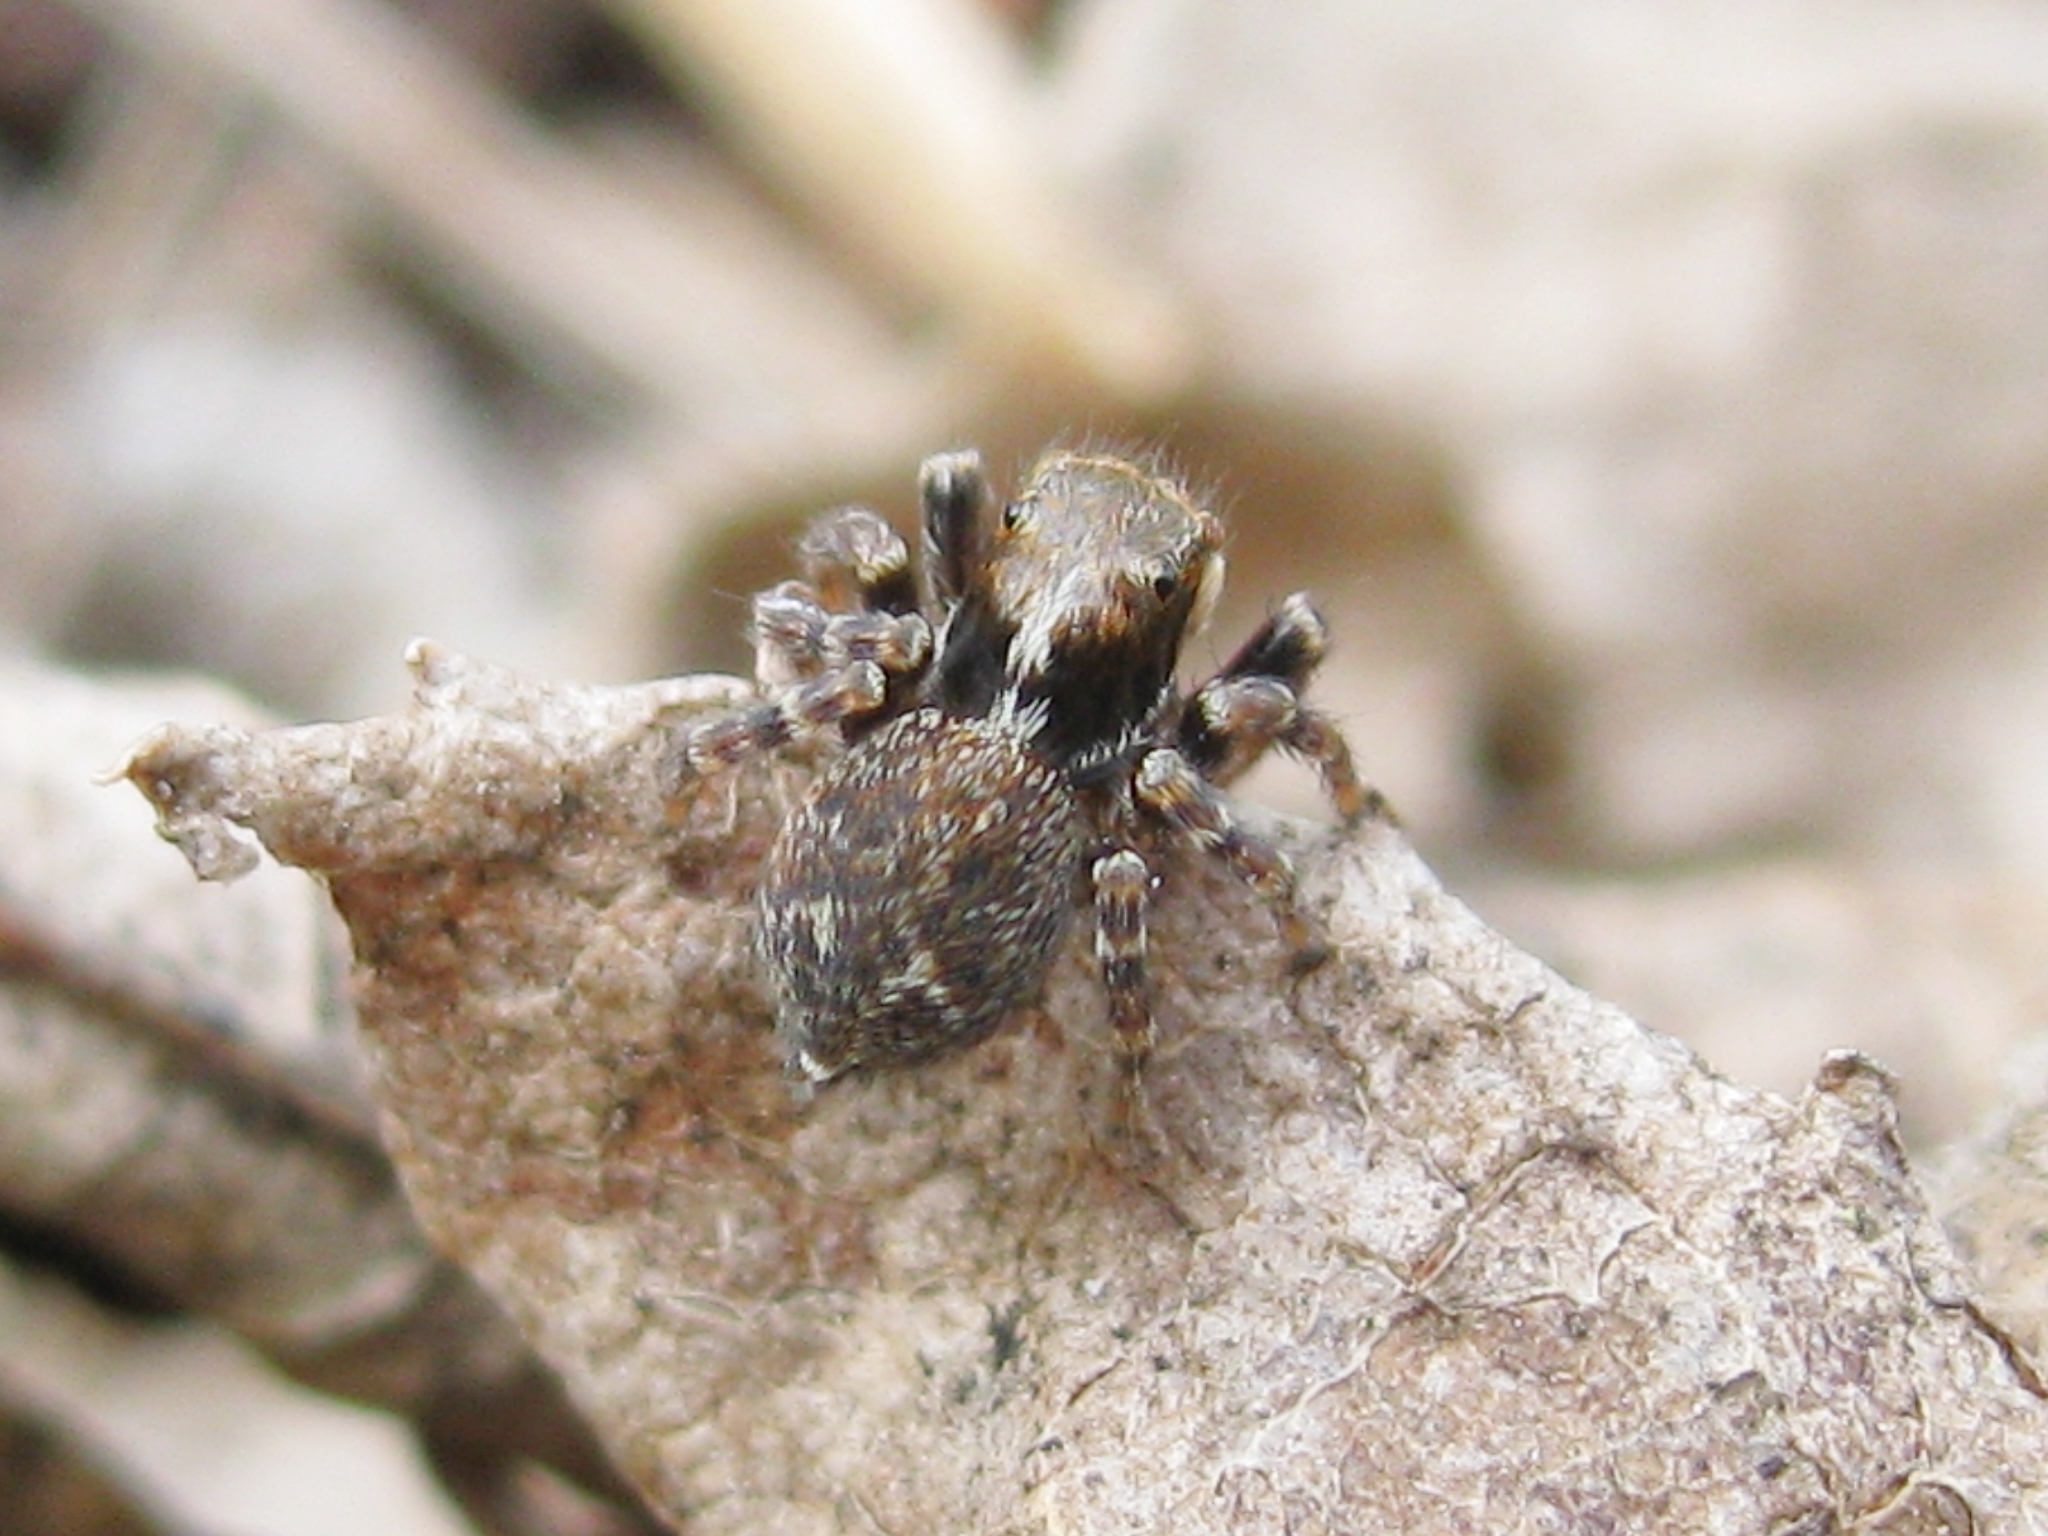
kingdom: Animalia
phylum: Arthropoda
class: Arachnida
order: Araneae
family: Salticidae
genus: Pseudeuophrys
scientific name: Pseudeuophrys erratica
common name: Jumping spider
